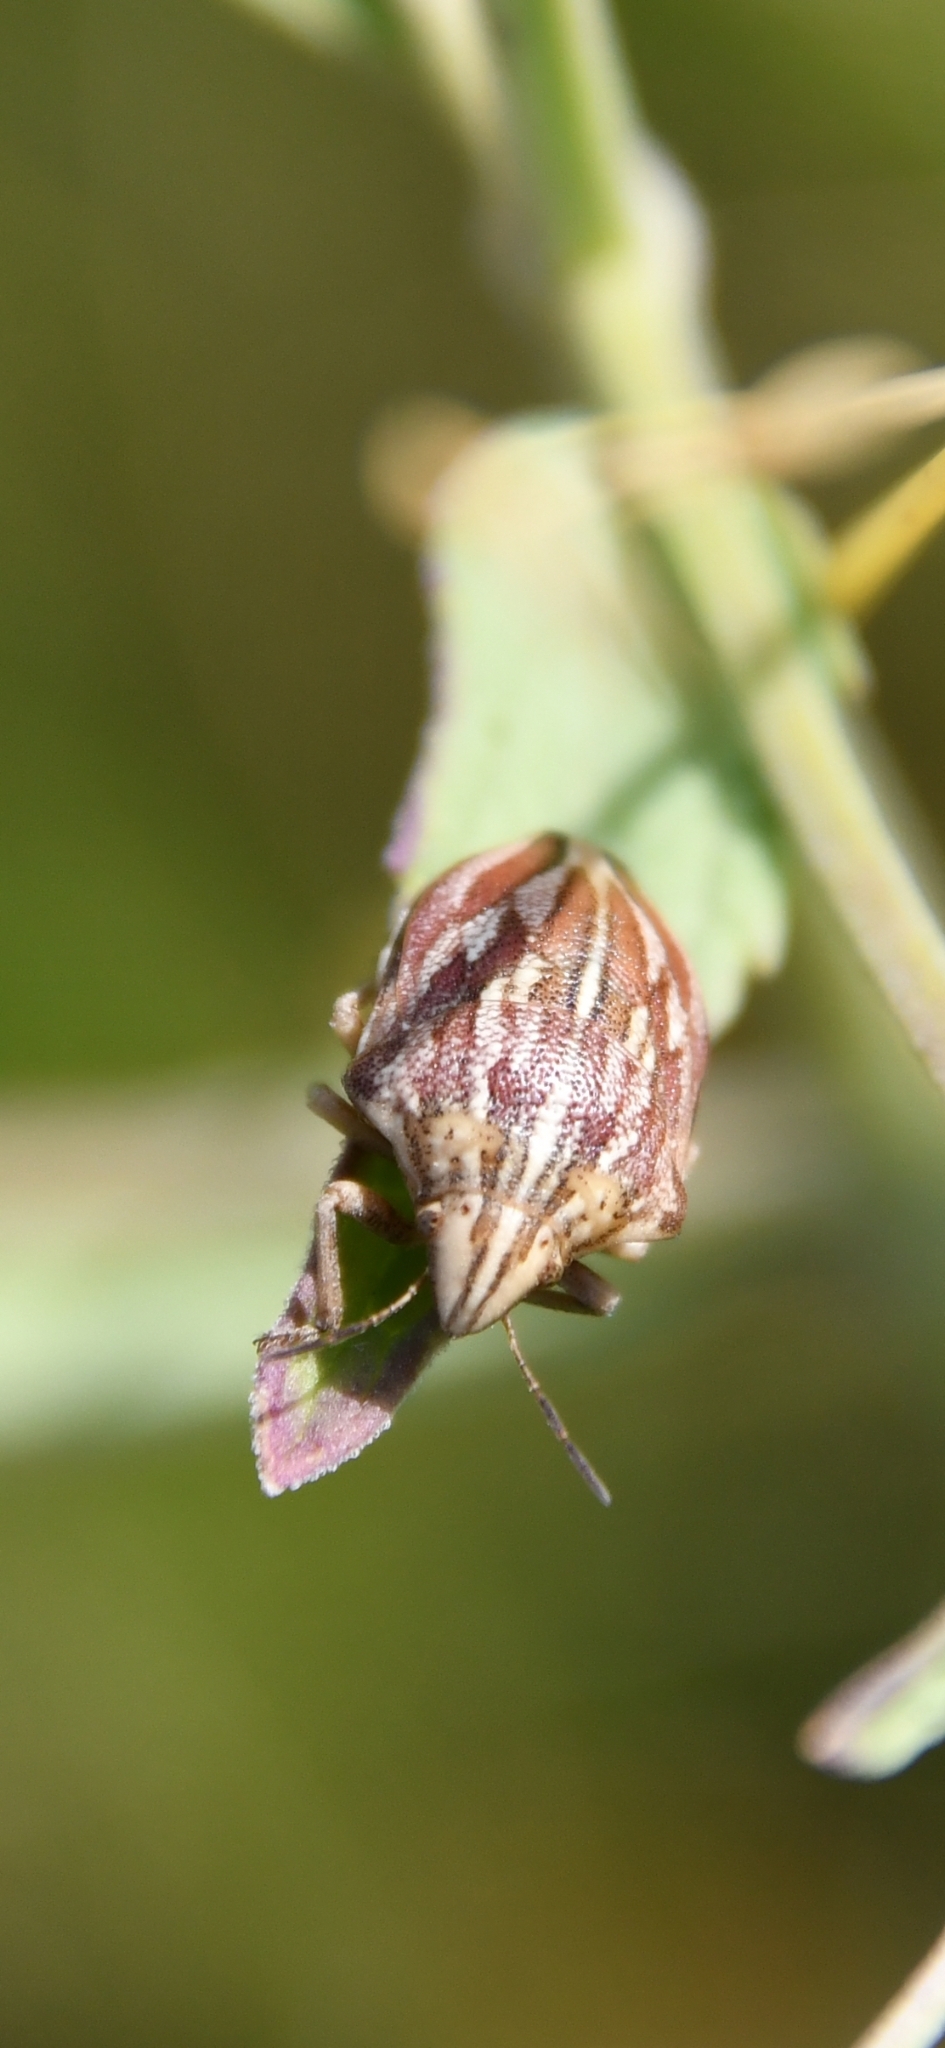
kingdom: Animalia
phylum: Arthropoda
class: Insecta
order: Hemiptera
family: Scutelleridae
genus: Odontotarsus
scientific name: Odontotarsus purpureolineatus
